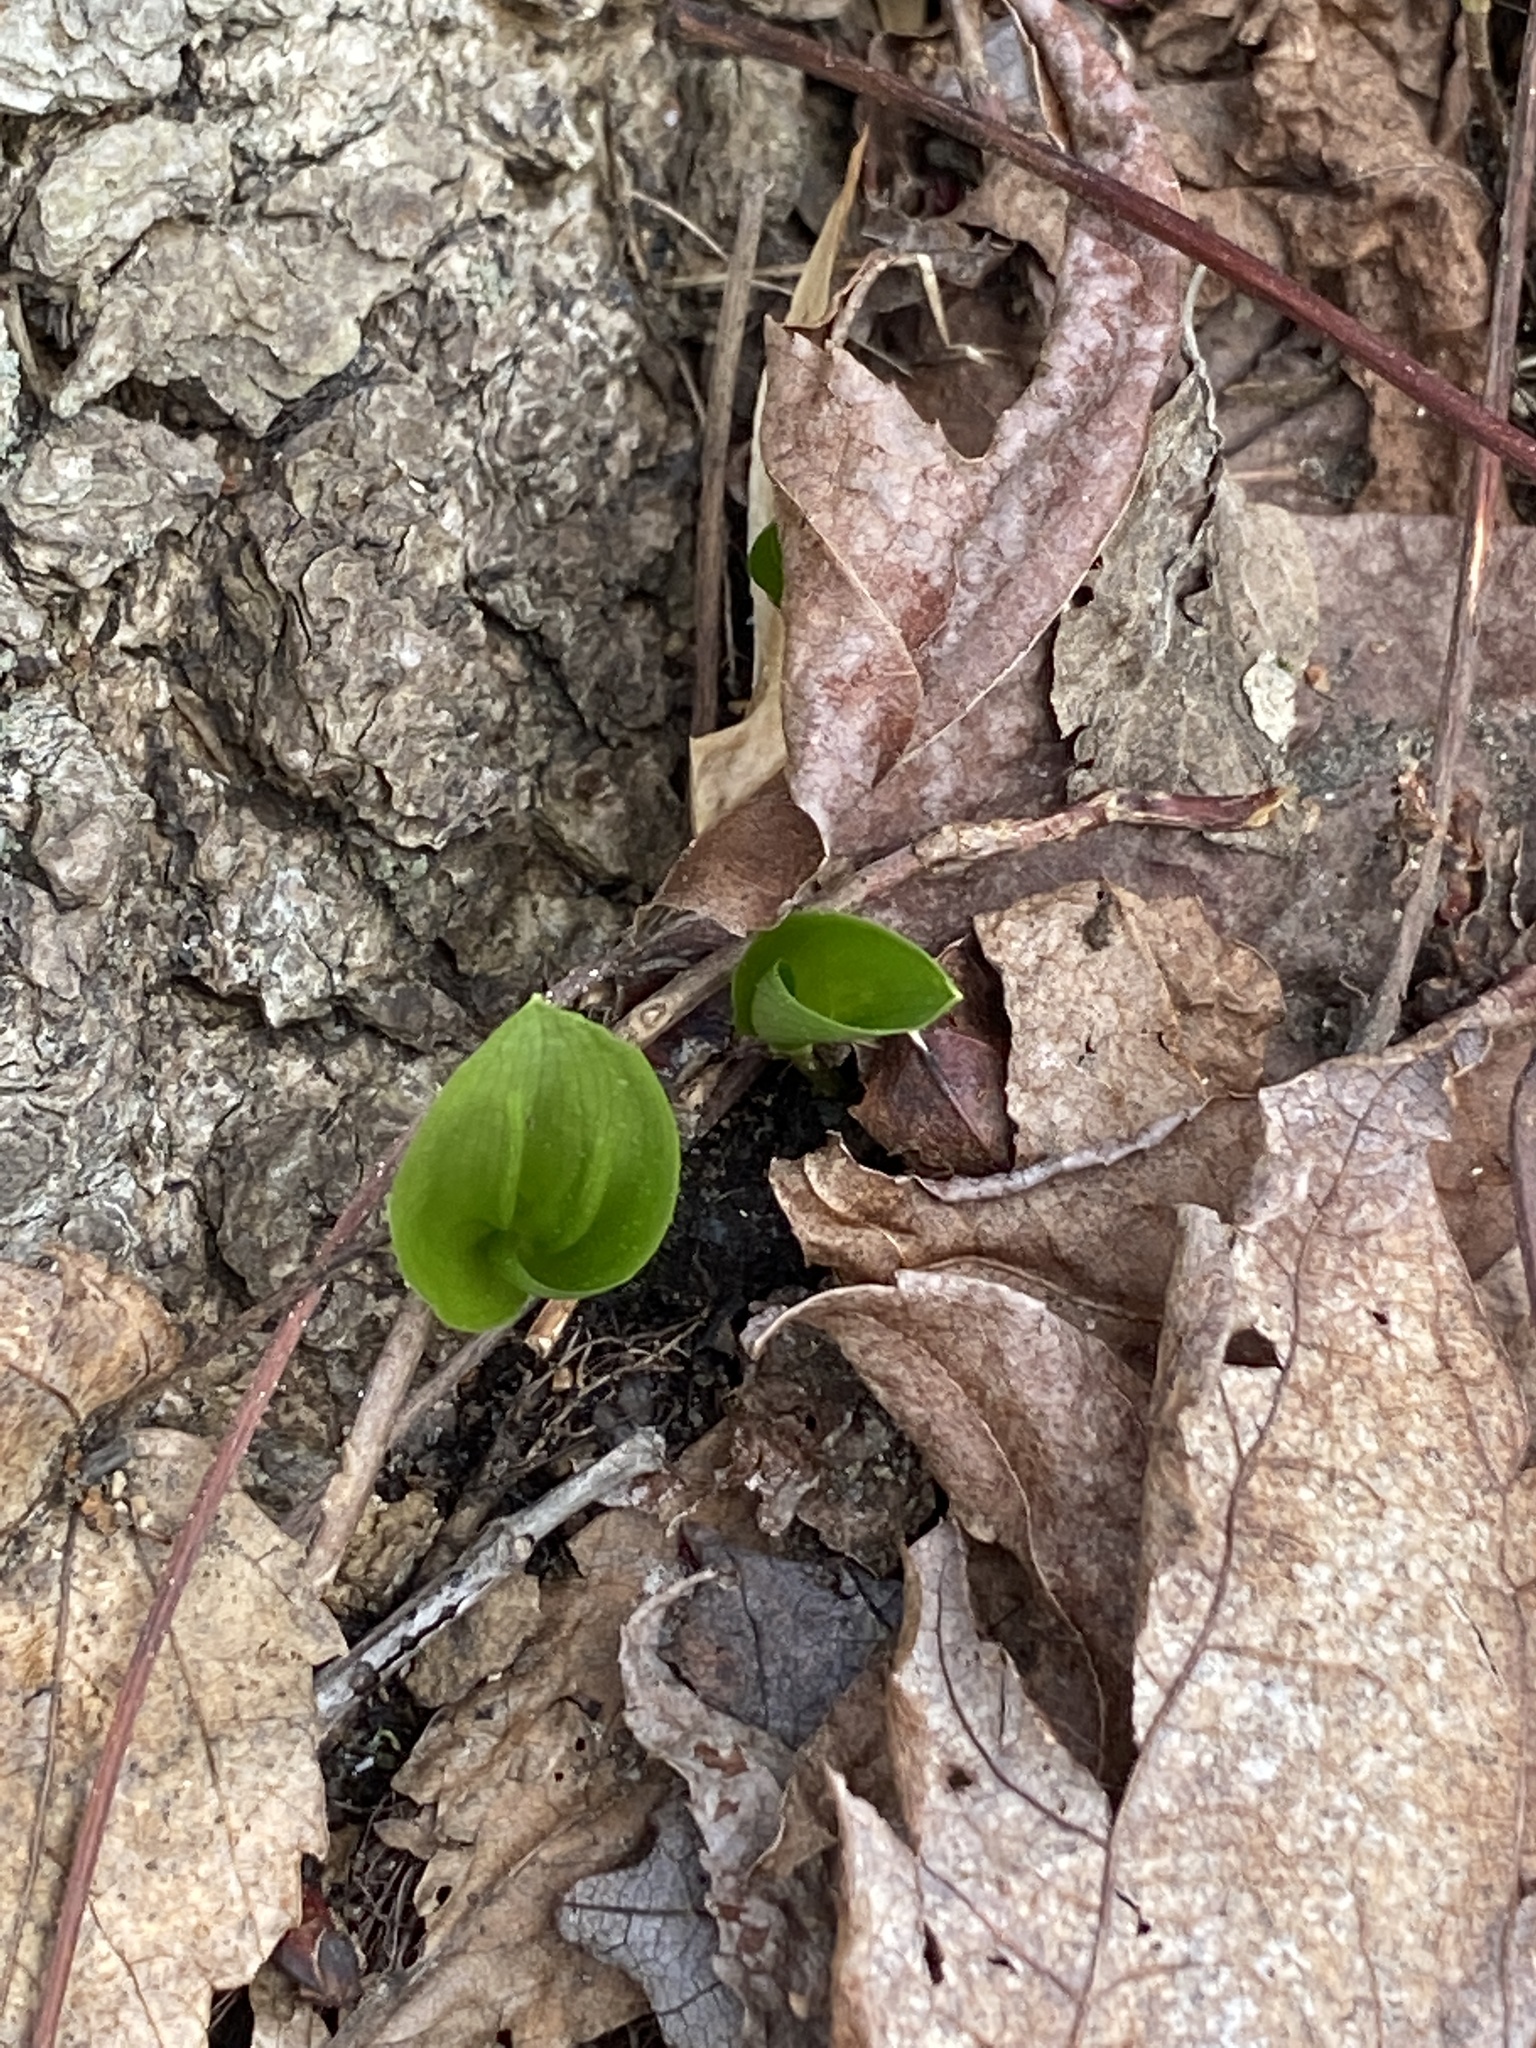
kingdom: Plantae
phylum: Tracheophyta
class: Liliopsida
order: Asparagales
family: Asparagaceae
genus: Maianthemum
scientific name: Maianthemum canadense
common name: False lily-of-the-valley
